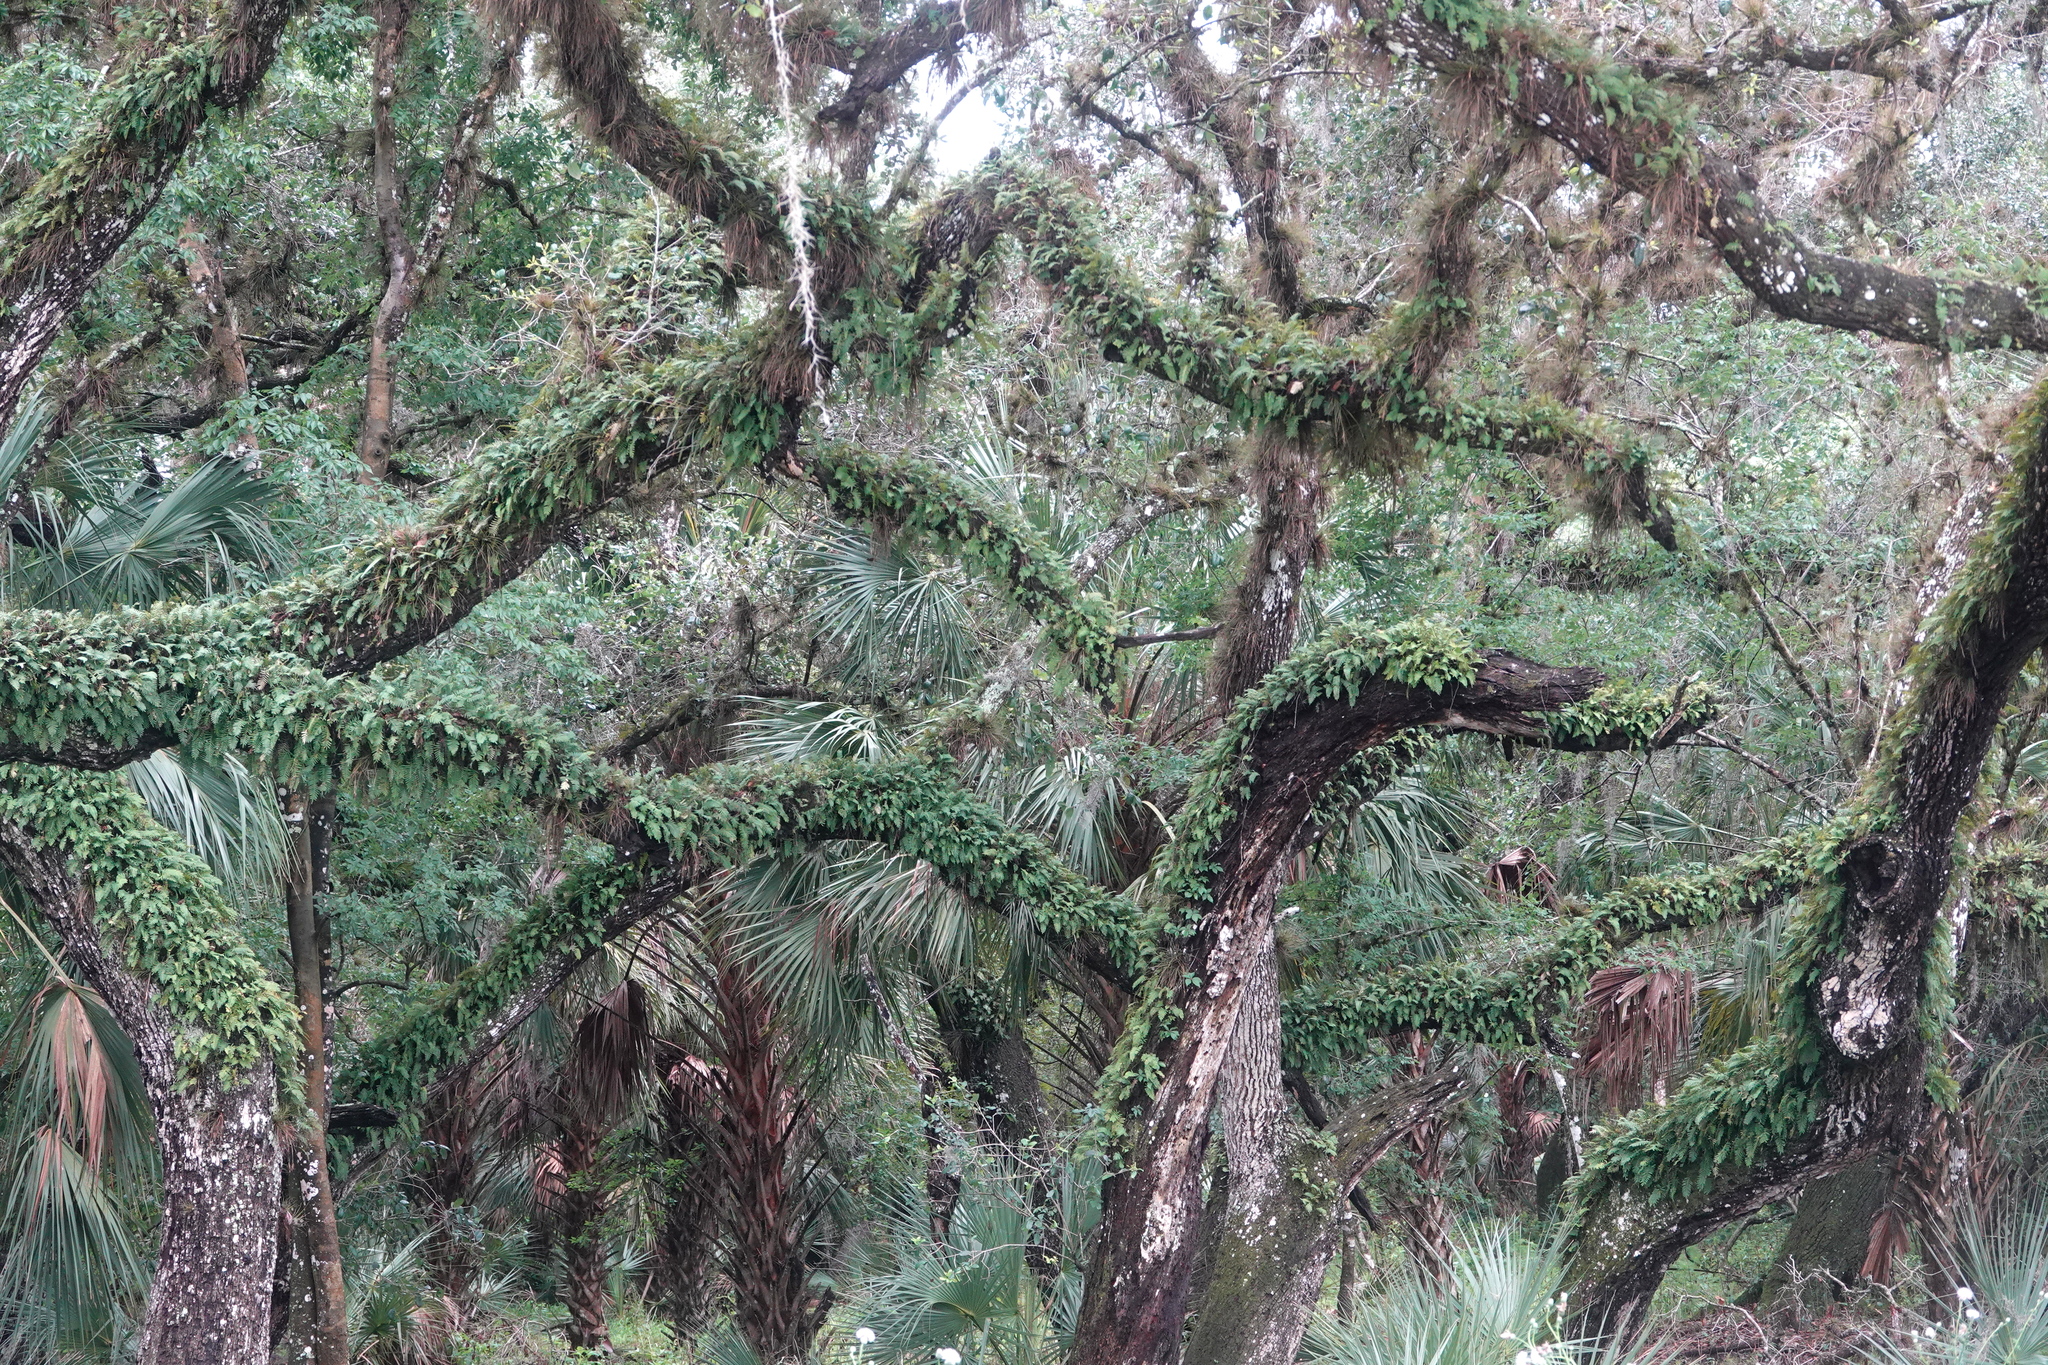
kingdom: Plantae
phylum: Tracheophyta
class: Polypodiopsida
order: Polypodiales
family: Polypodiaceae
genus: Pleopeltis
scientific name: Pleopeltis michauxiana
